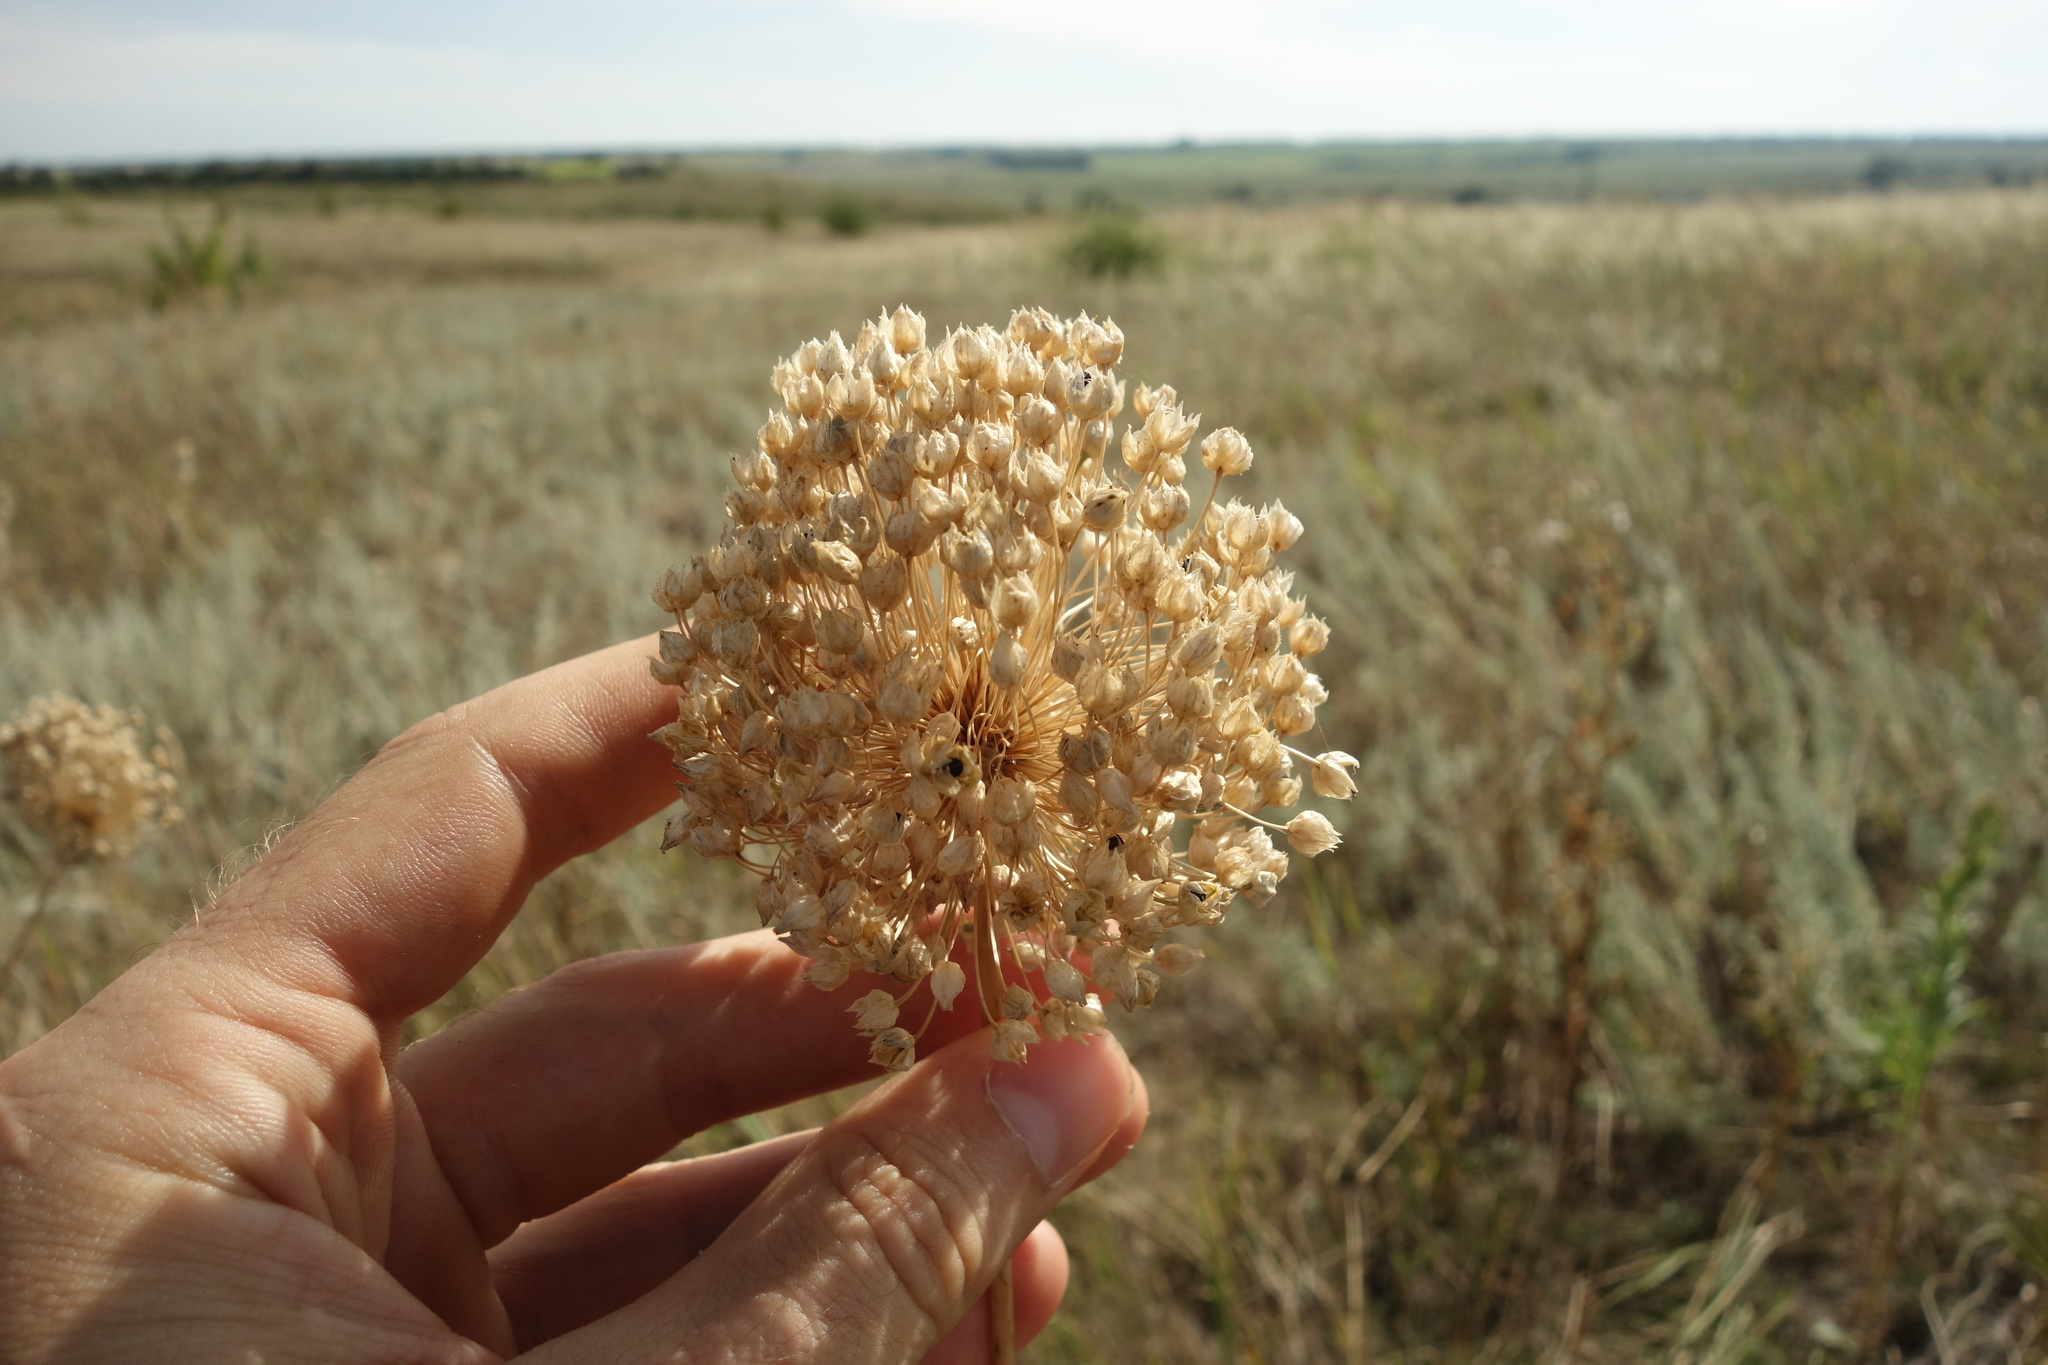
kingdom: Plantae
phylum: Tracheophyta
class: Liliopsida
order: Asparagales
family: Amaryllidaceae
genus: Allium
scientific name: Allium rotundum
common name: Sand leek
